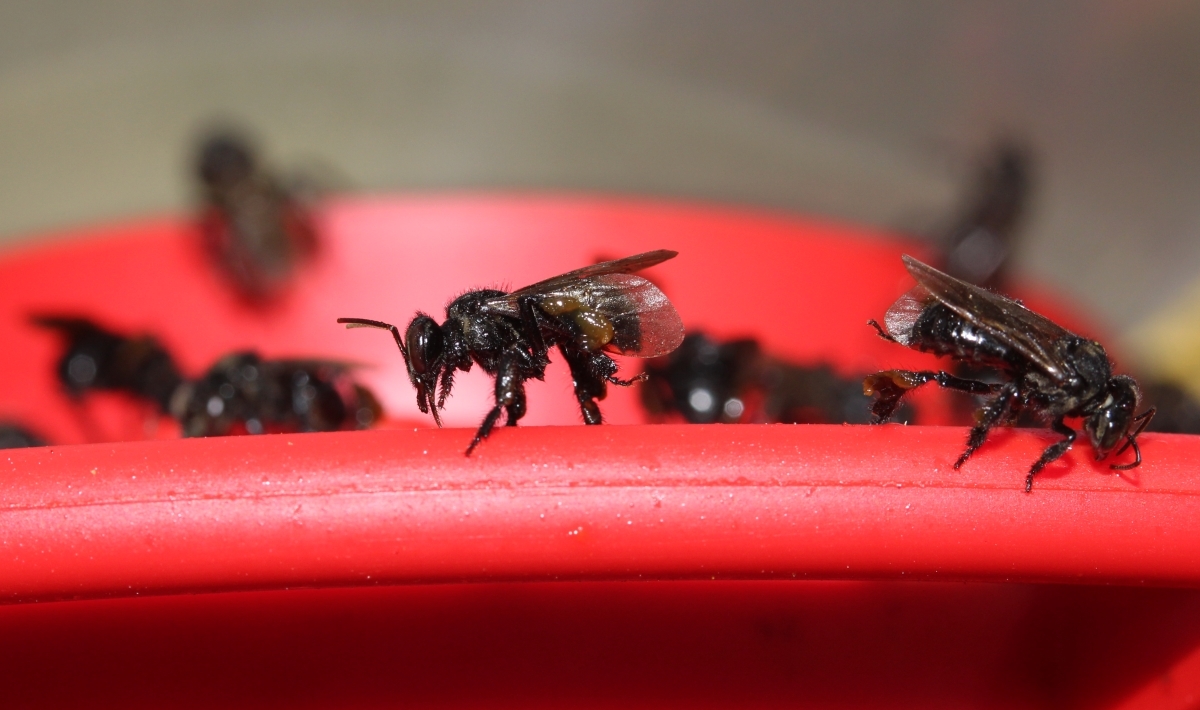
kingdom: Animalia
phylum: Arthropoda
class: Insecta
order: Hymenoptera
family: Apidae
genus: Trigona
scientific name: Trigona
